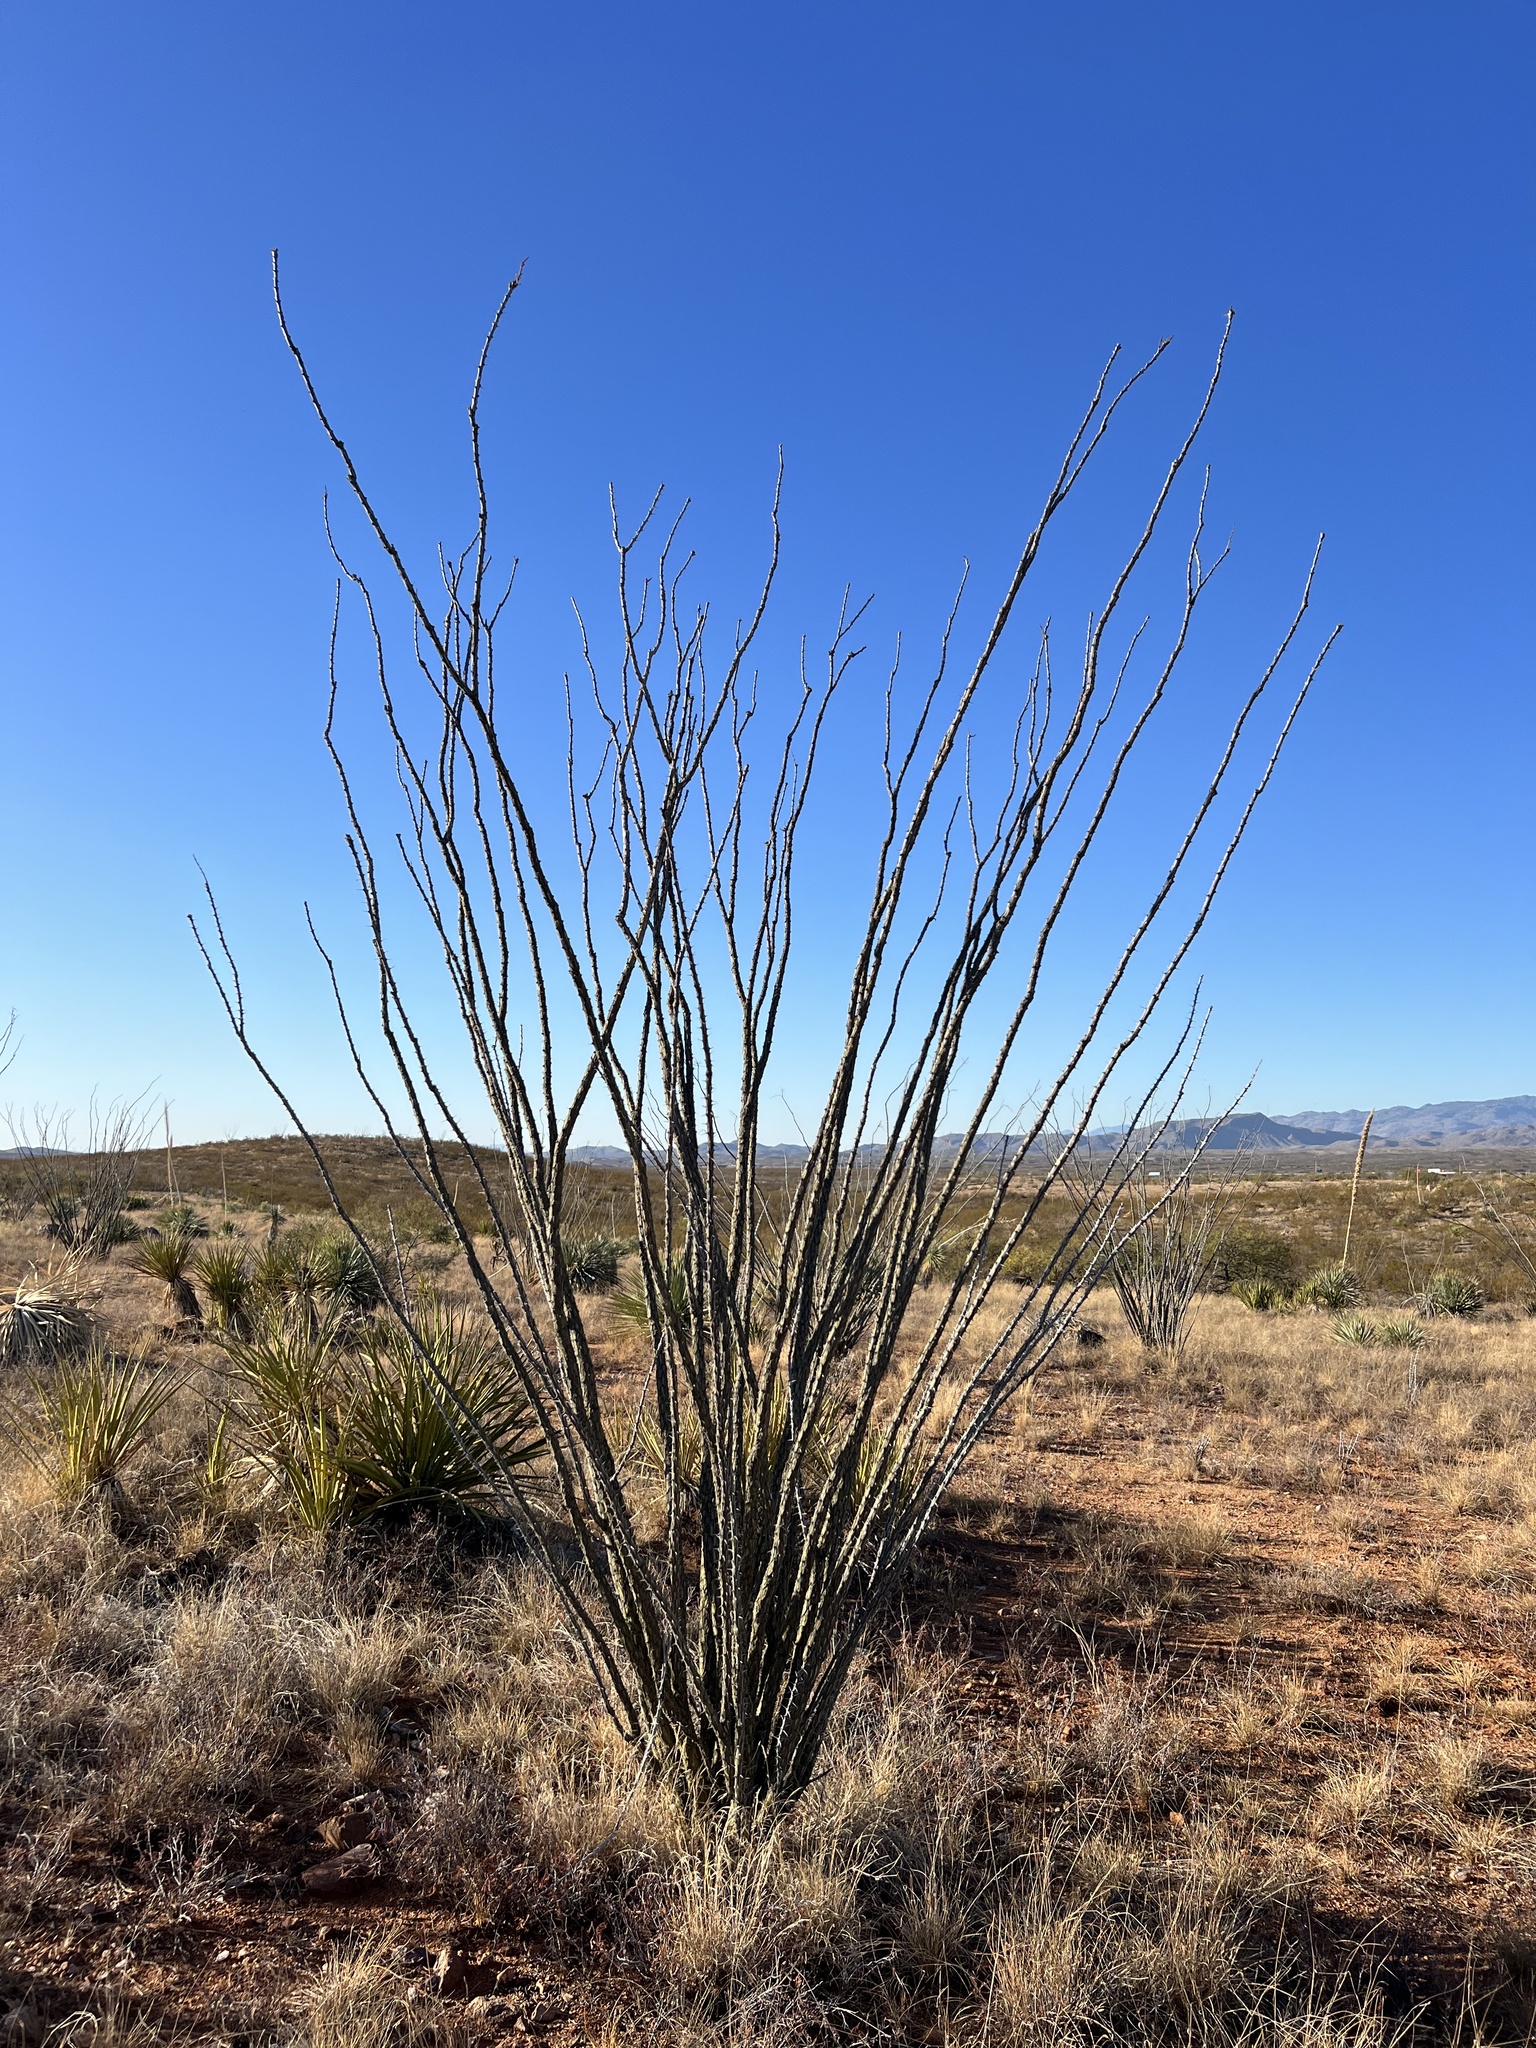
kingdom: Plantae
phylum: Tracheophyta
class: Magnoliopsida
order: Ericales
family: Fouquieriaceae
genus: Fouquieria
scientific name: Fouquieria splendens
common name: Vine-cactus
